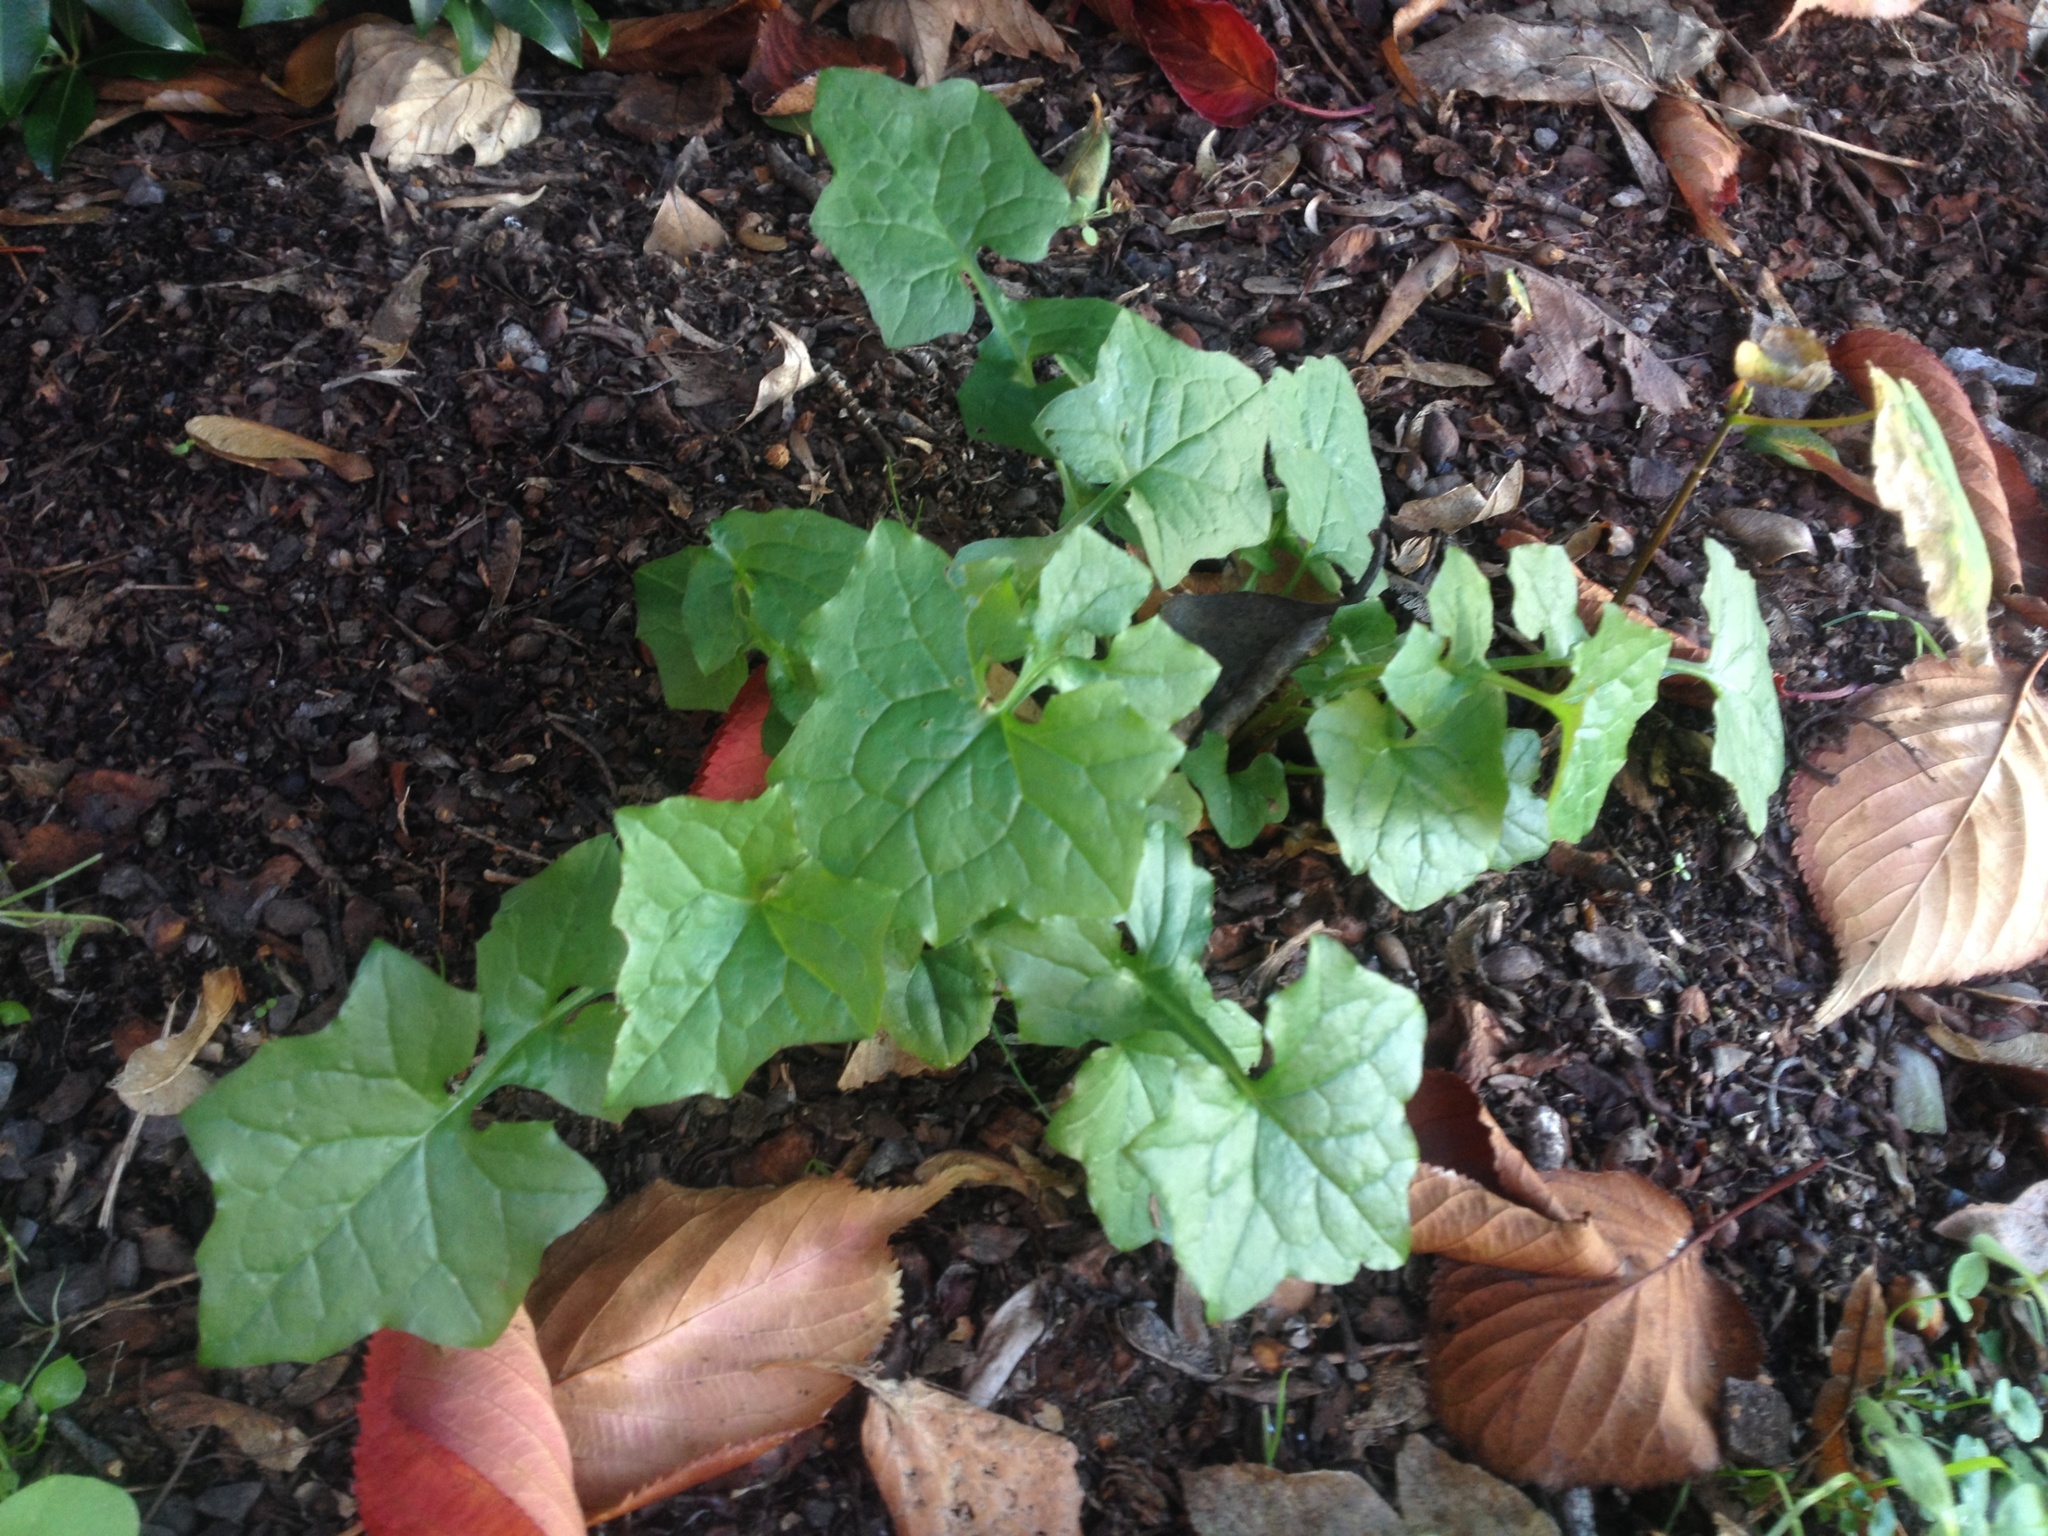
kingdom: Plantae
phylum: Tracheophyta
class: Magnoliopsida
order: Asterales
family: Asteraceae
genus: Mycelis
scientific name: Mycelis muralis
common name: Wall lettuce
